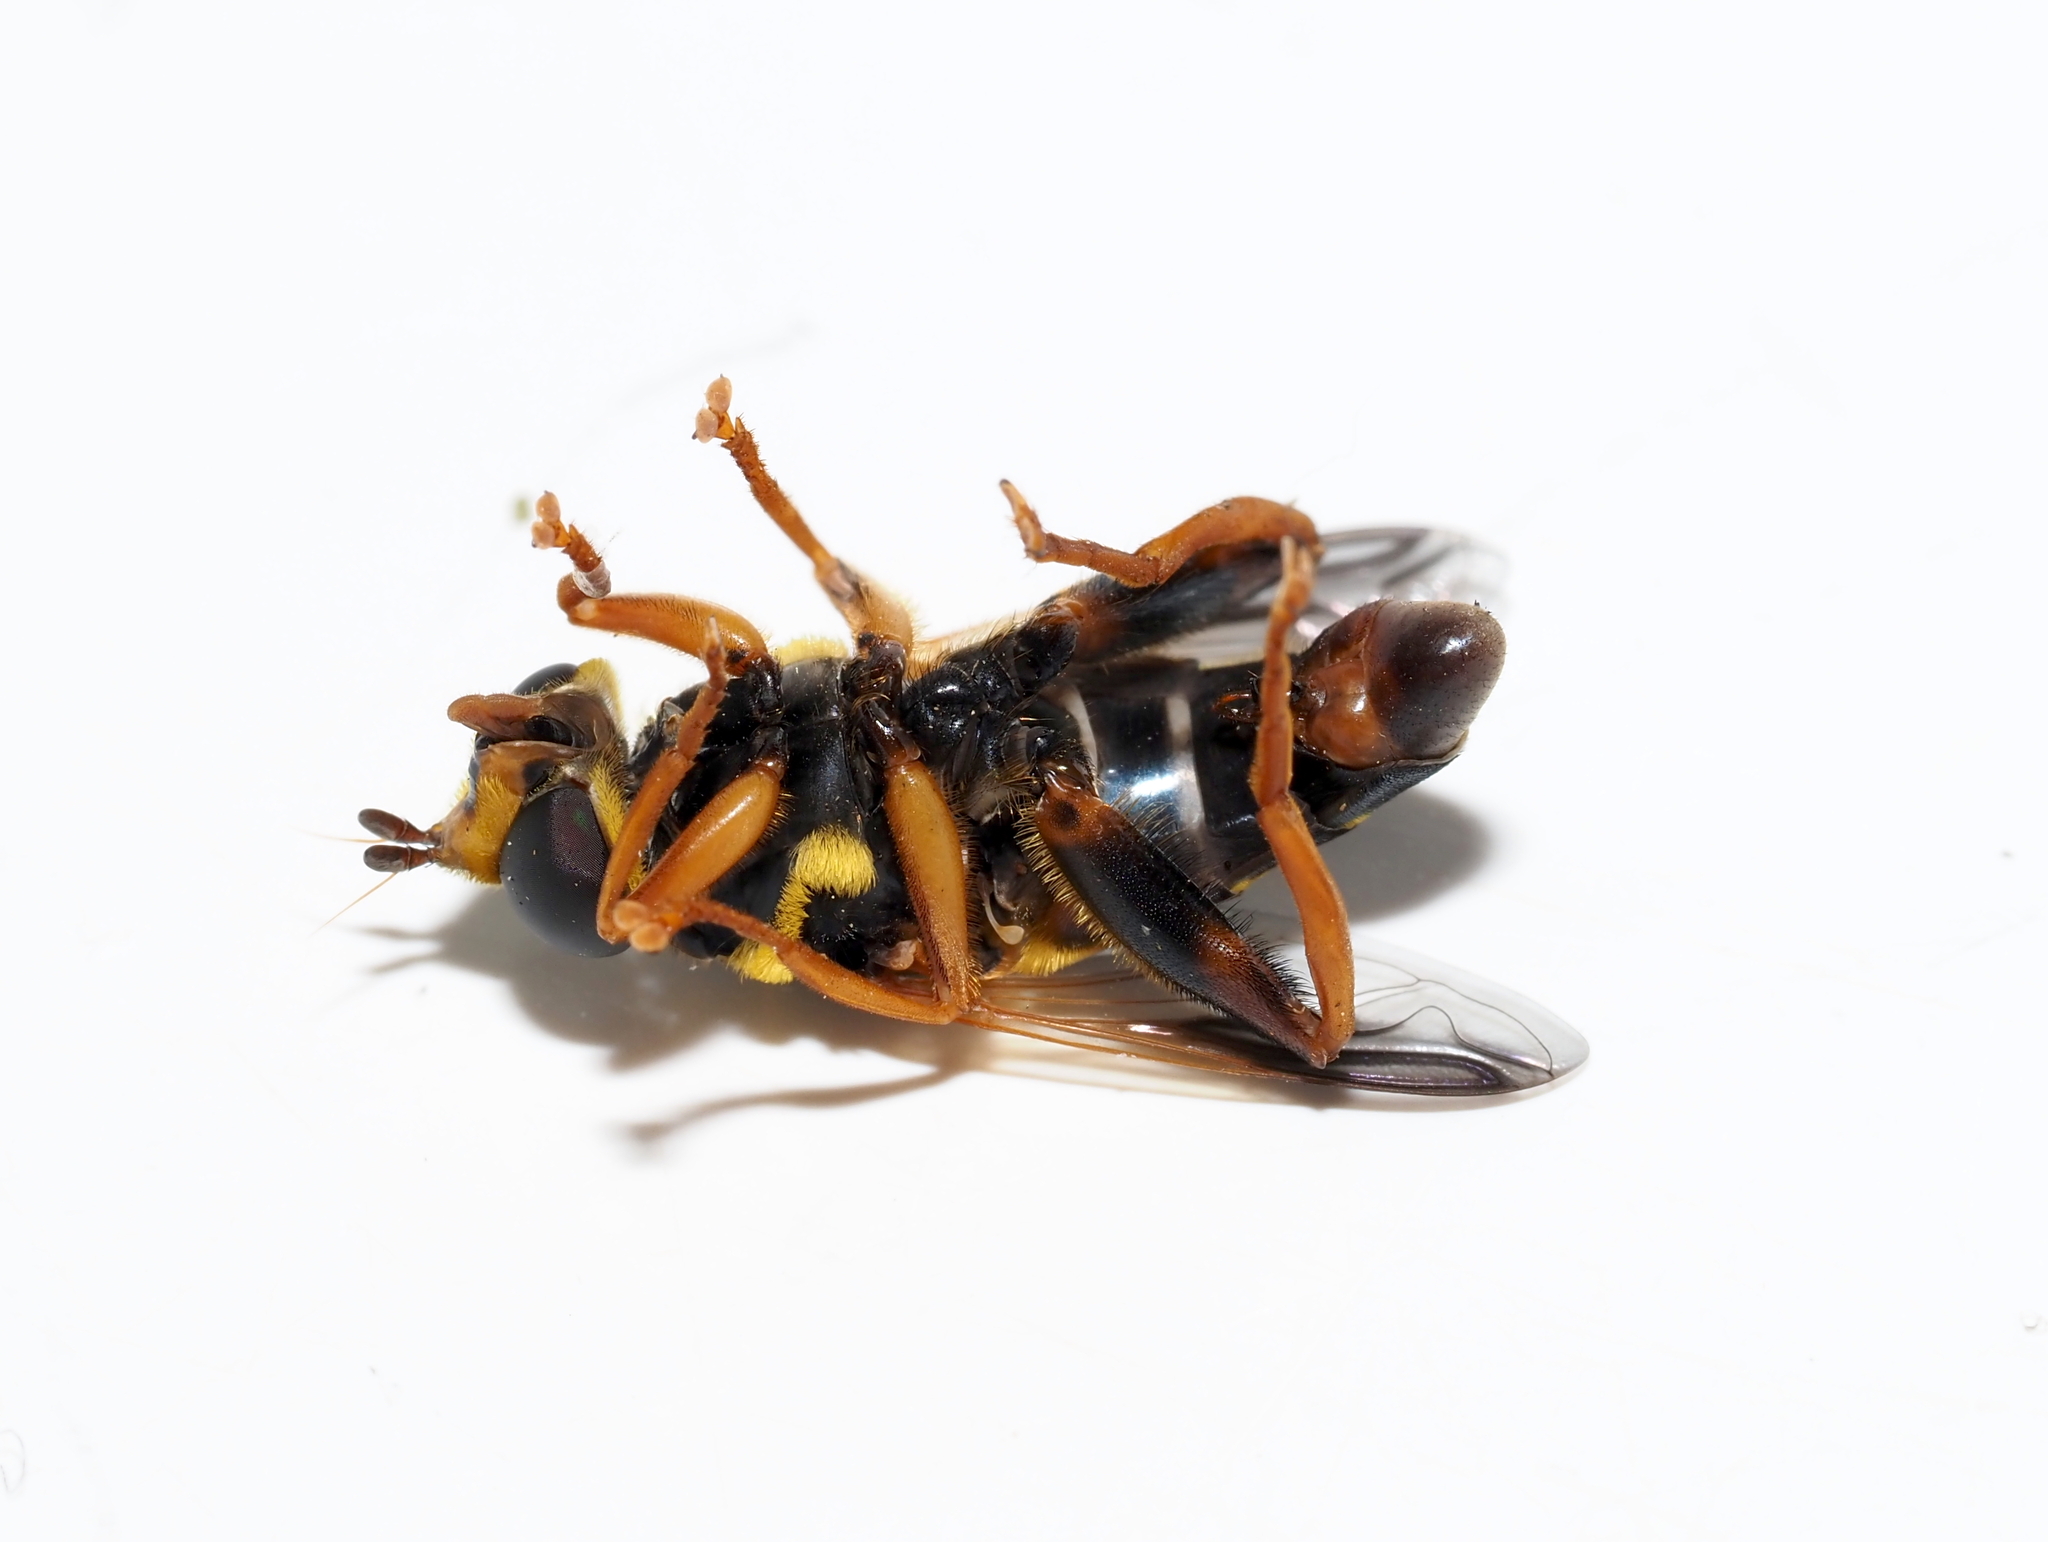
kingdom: Animalia
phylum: Arthropoda
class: Insecta
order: Diptera
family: Syrphidae
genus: Meromacrus
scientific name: Meromacrus acutus
